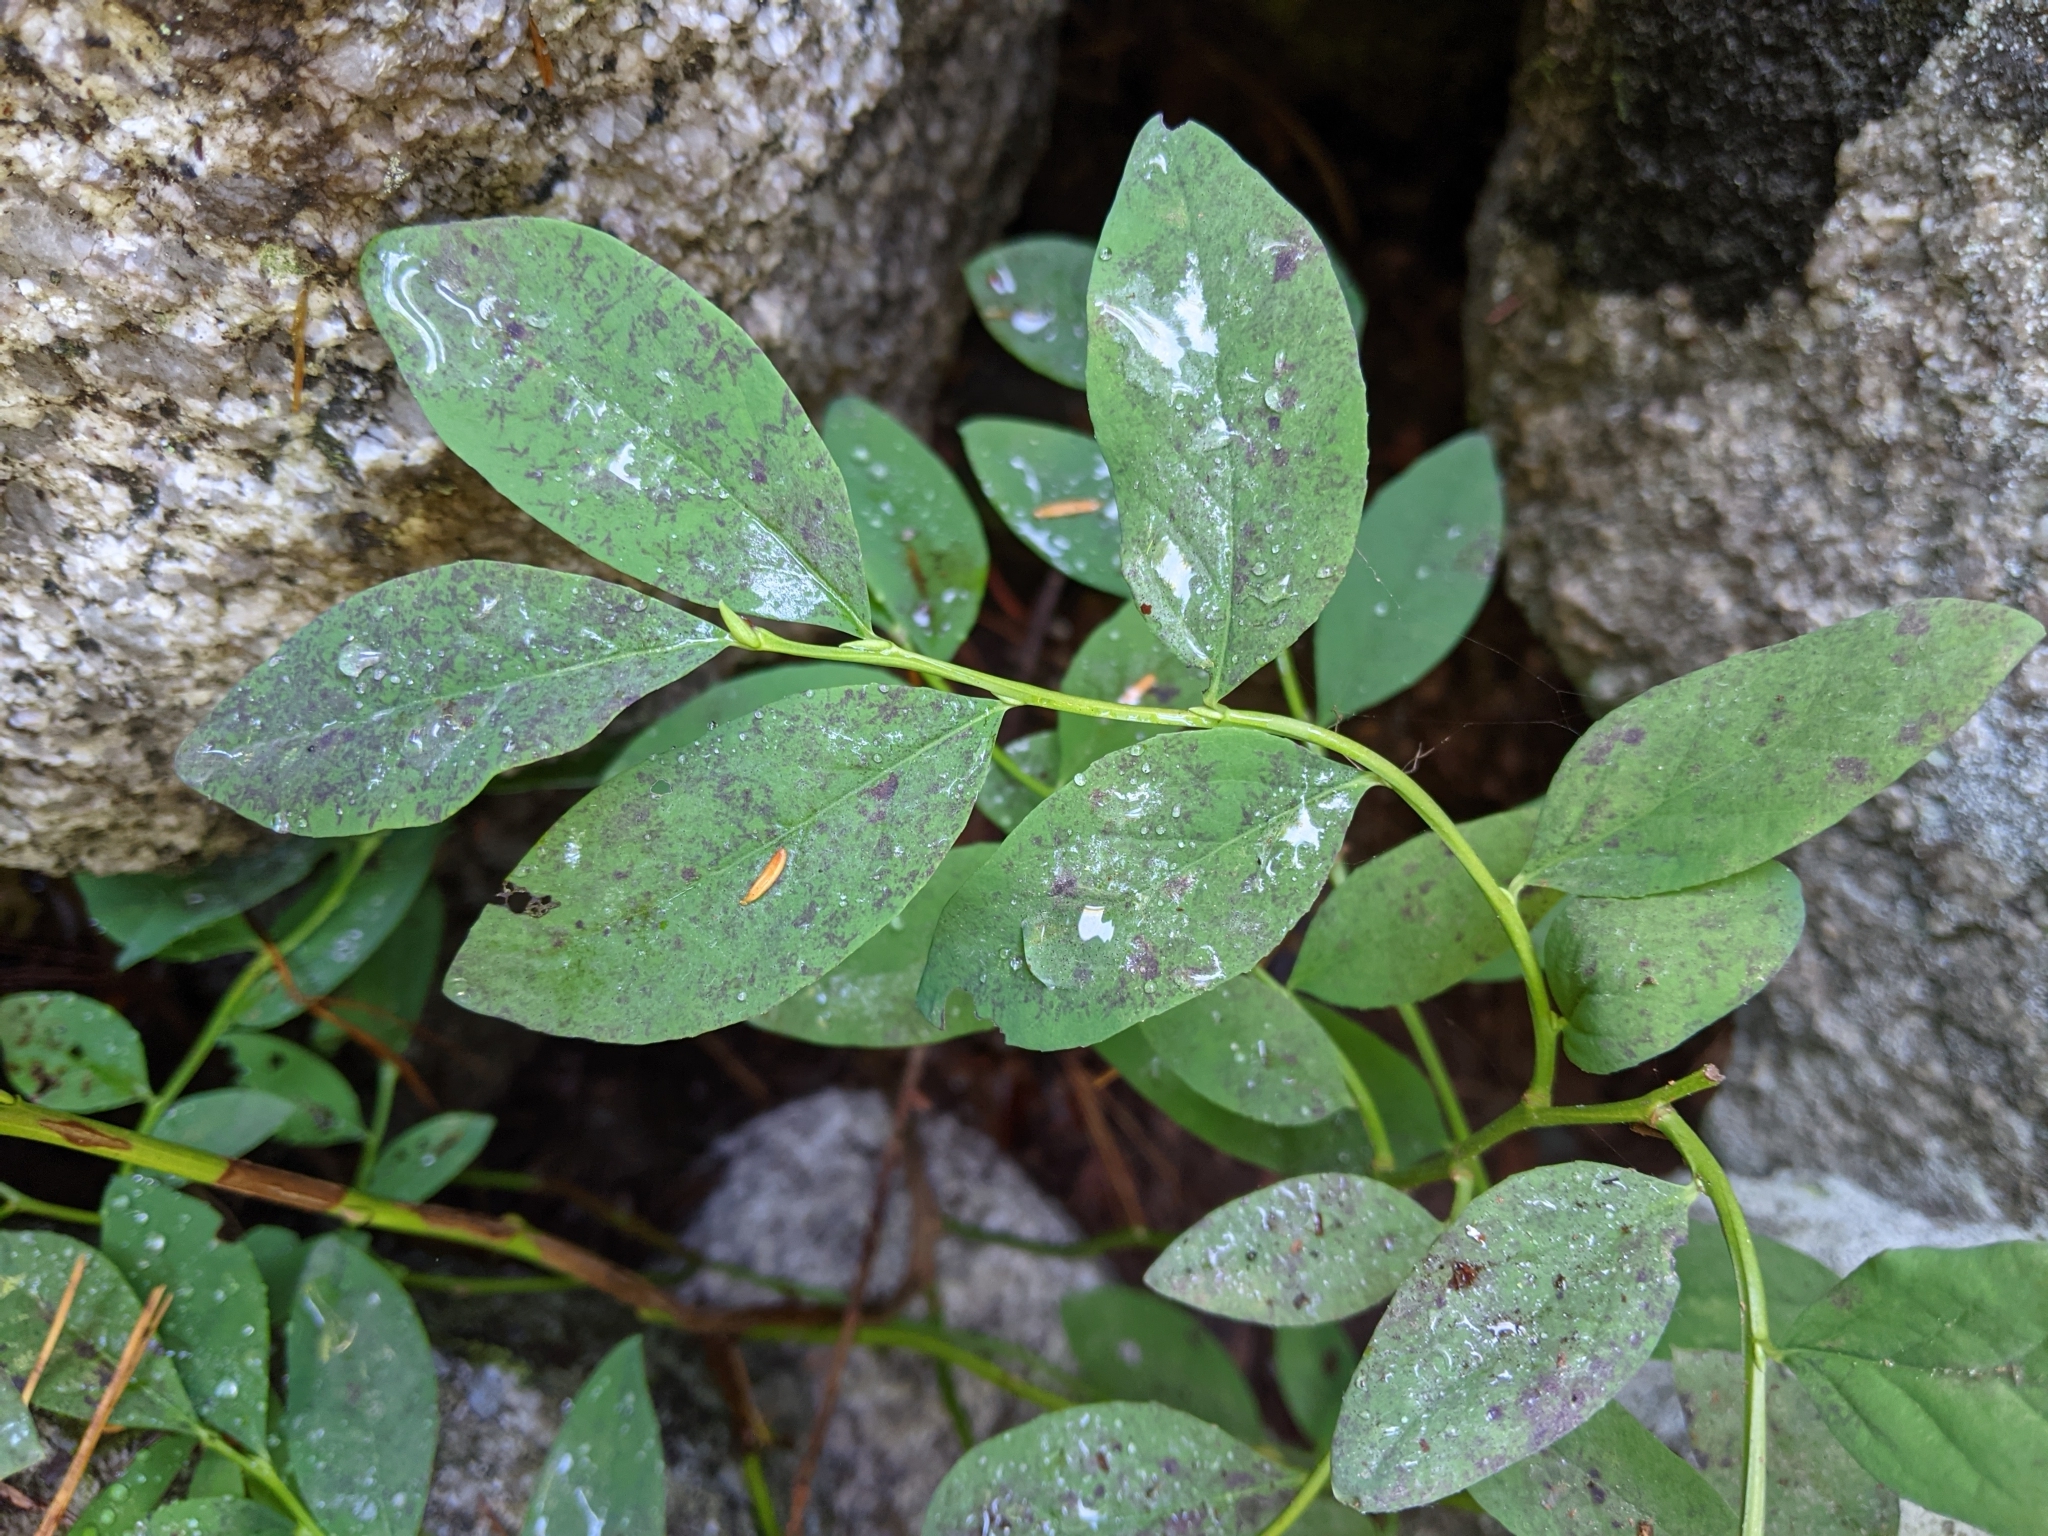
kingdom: Plantae
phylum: Tracheophyta
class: Magnoliopsida
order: Ericales
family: Ericaceae
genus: Vaccinium
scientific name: Vaccinium ovalifolium
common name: Early blueberry
